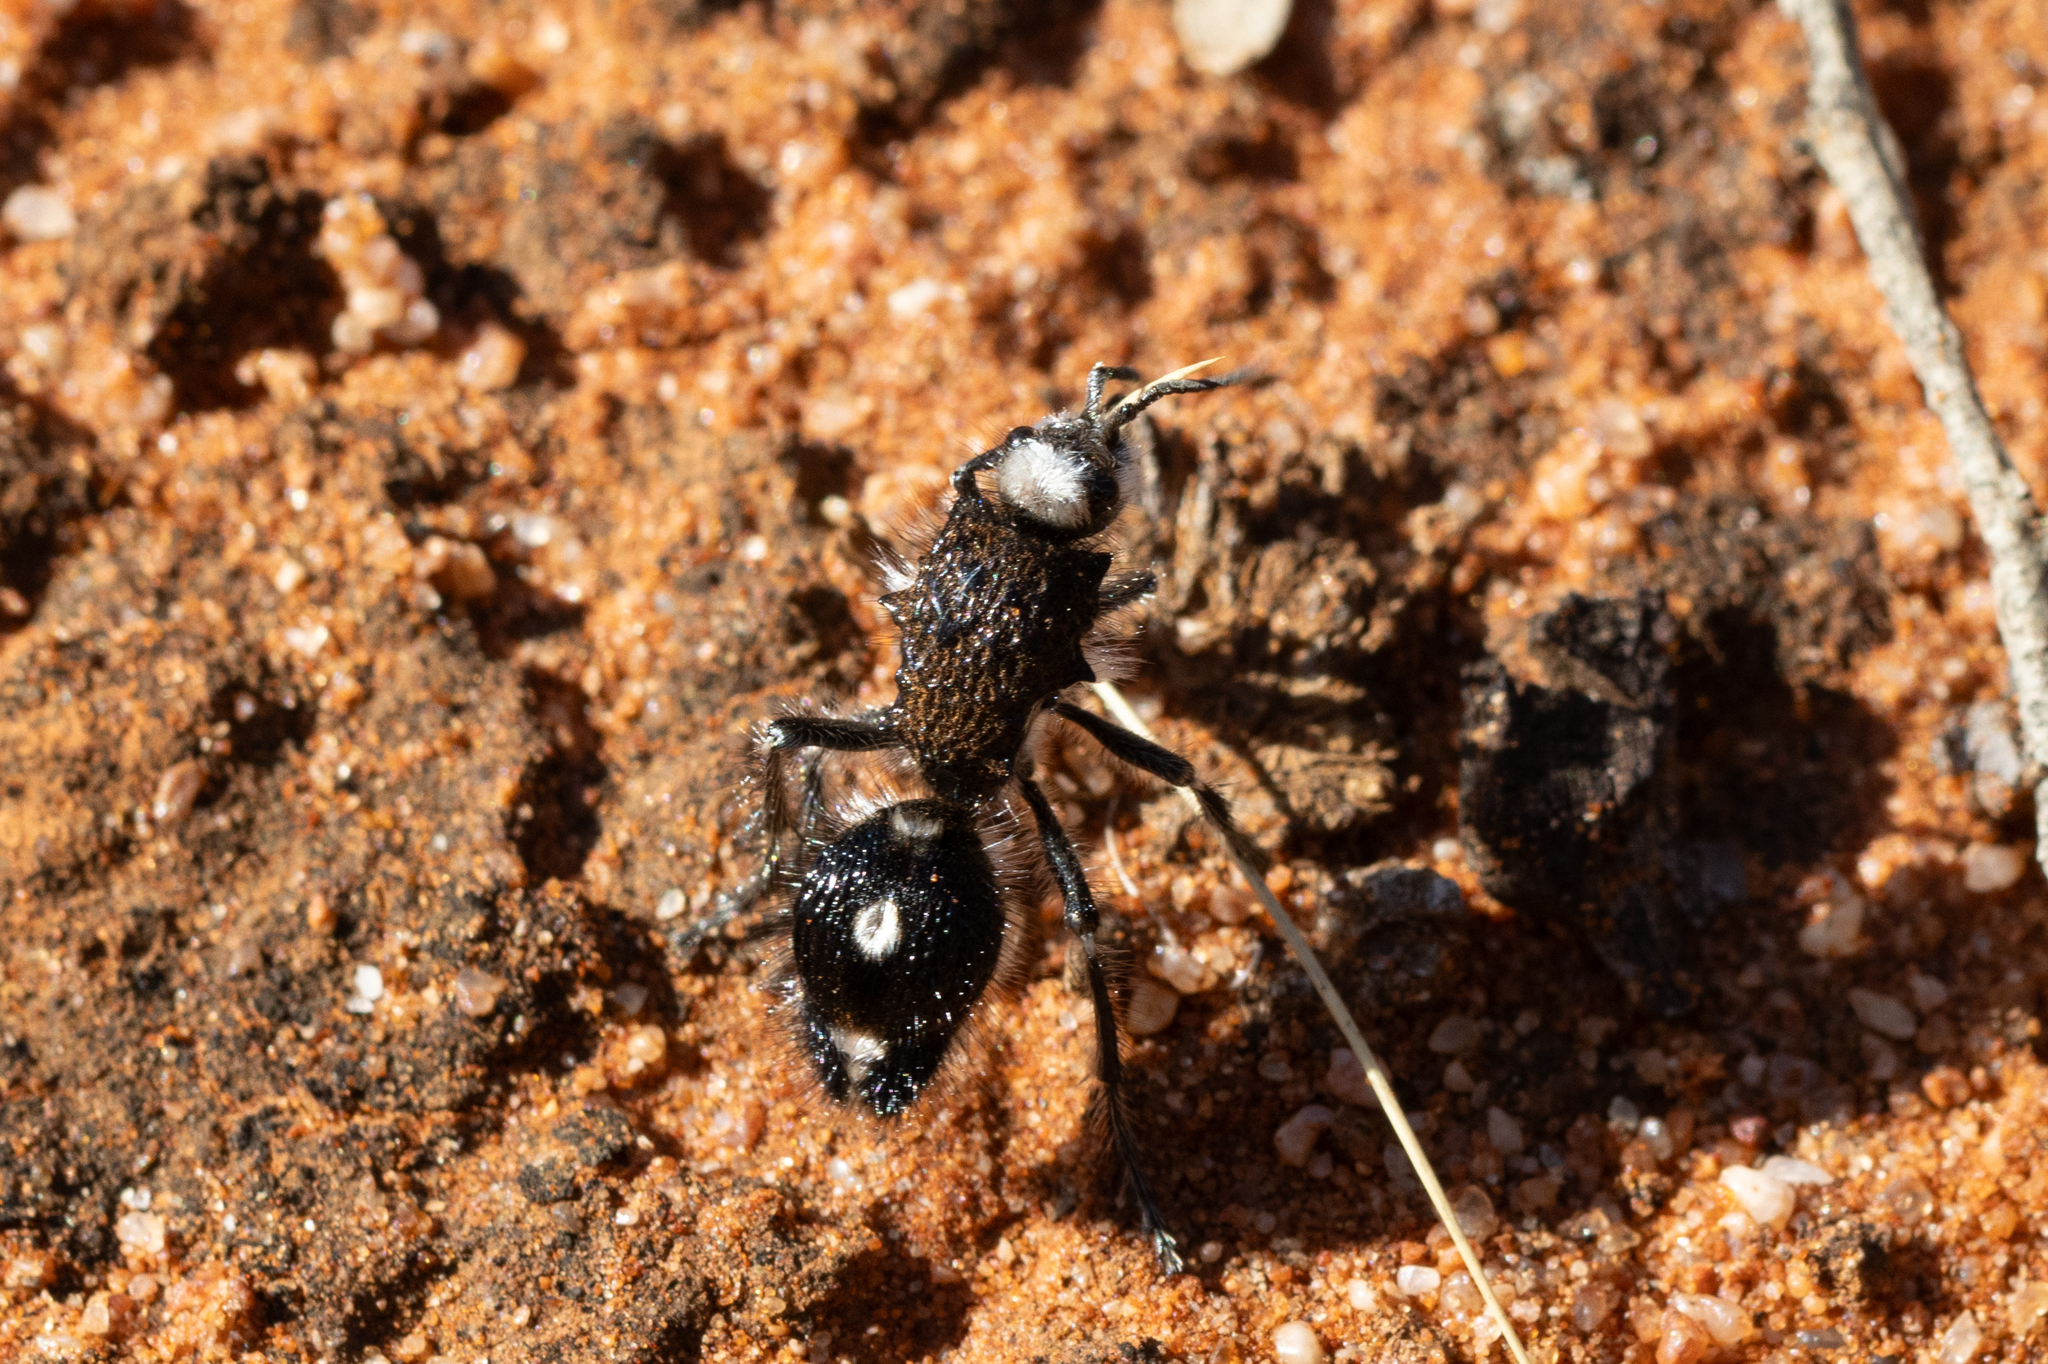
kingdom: Animalia
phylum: Arthropoda
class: Insecta
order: Hymenoptera
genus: Bothriomutilla
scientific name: Bothriomutilla
